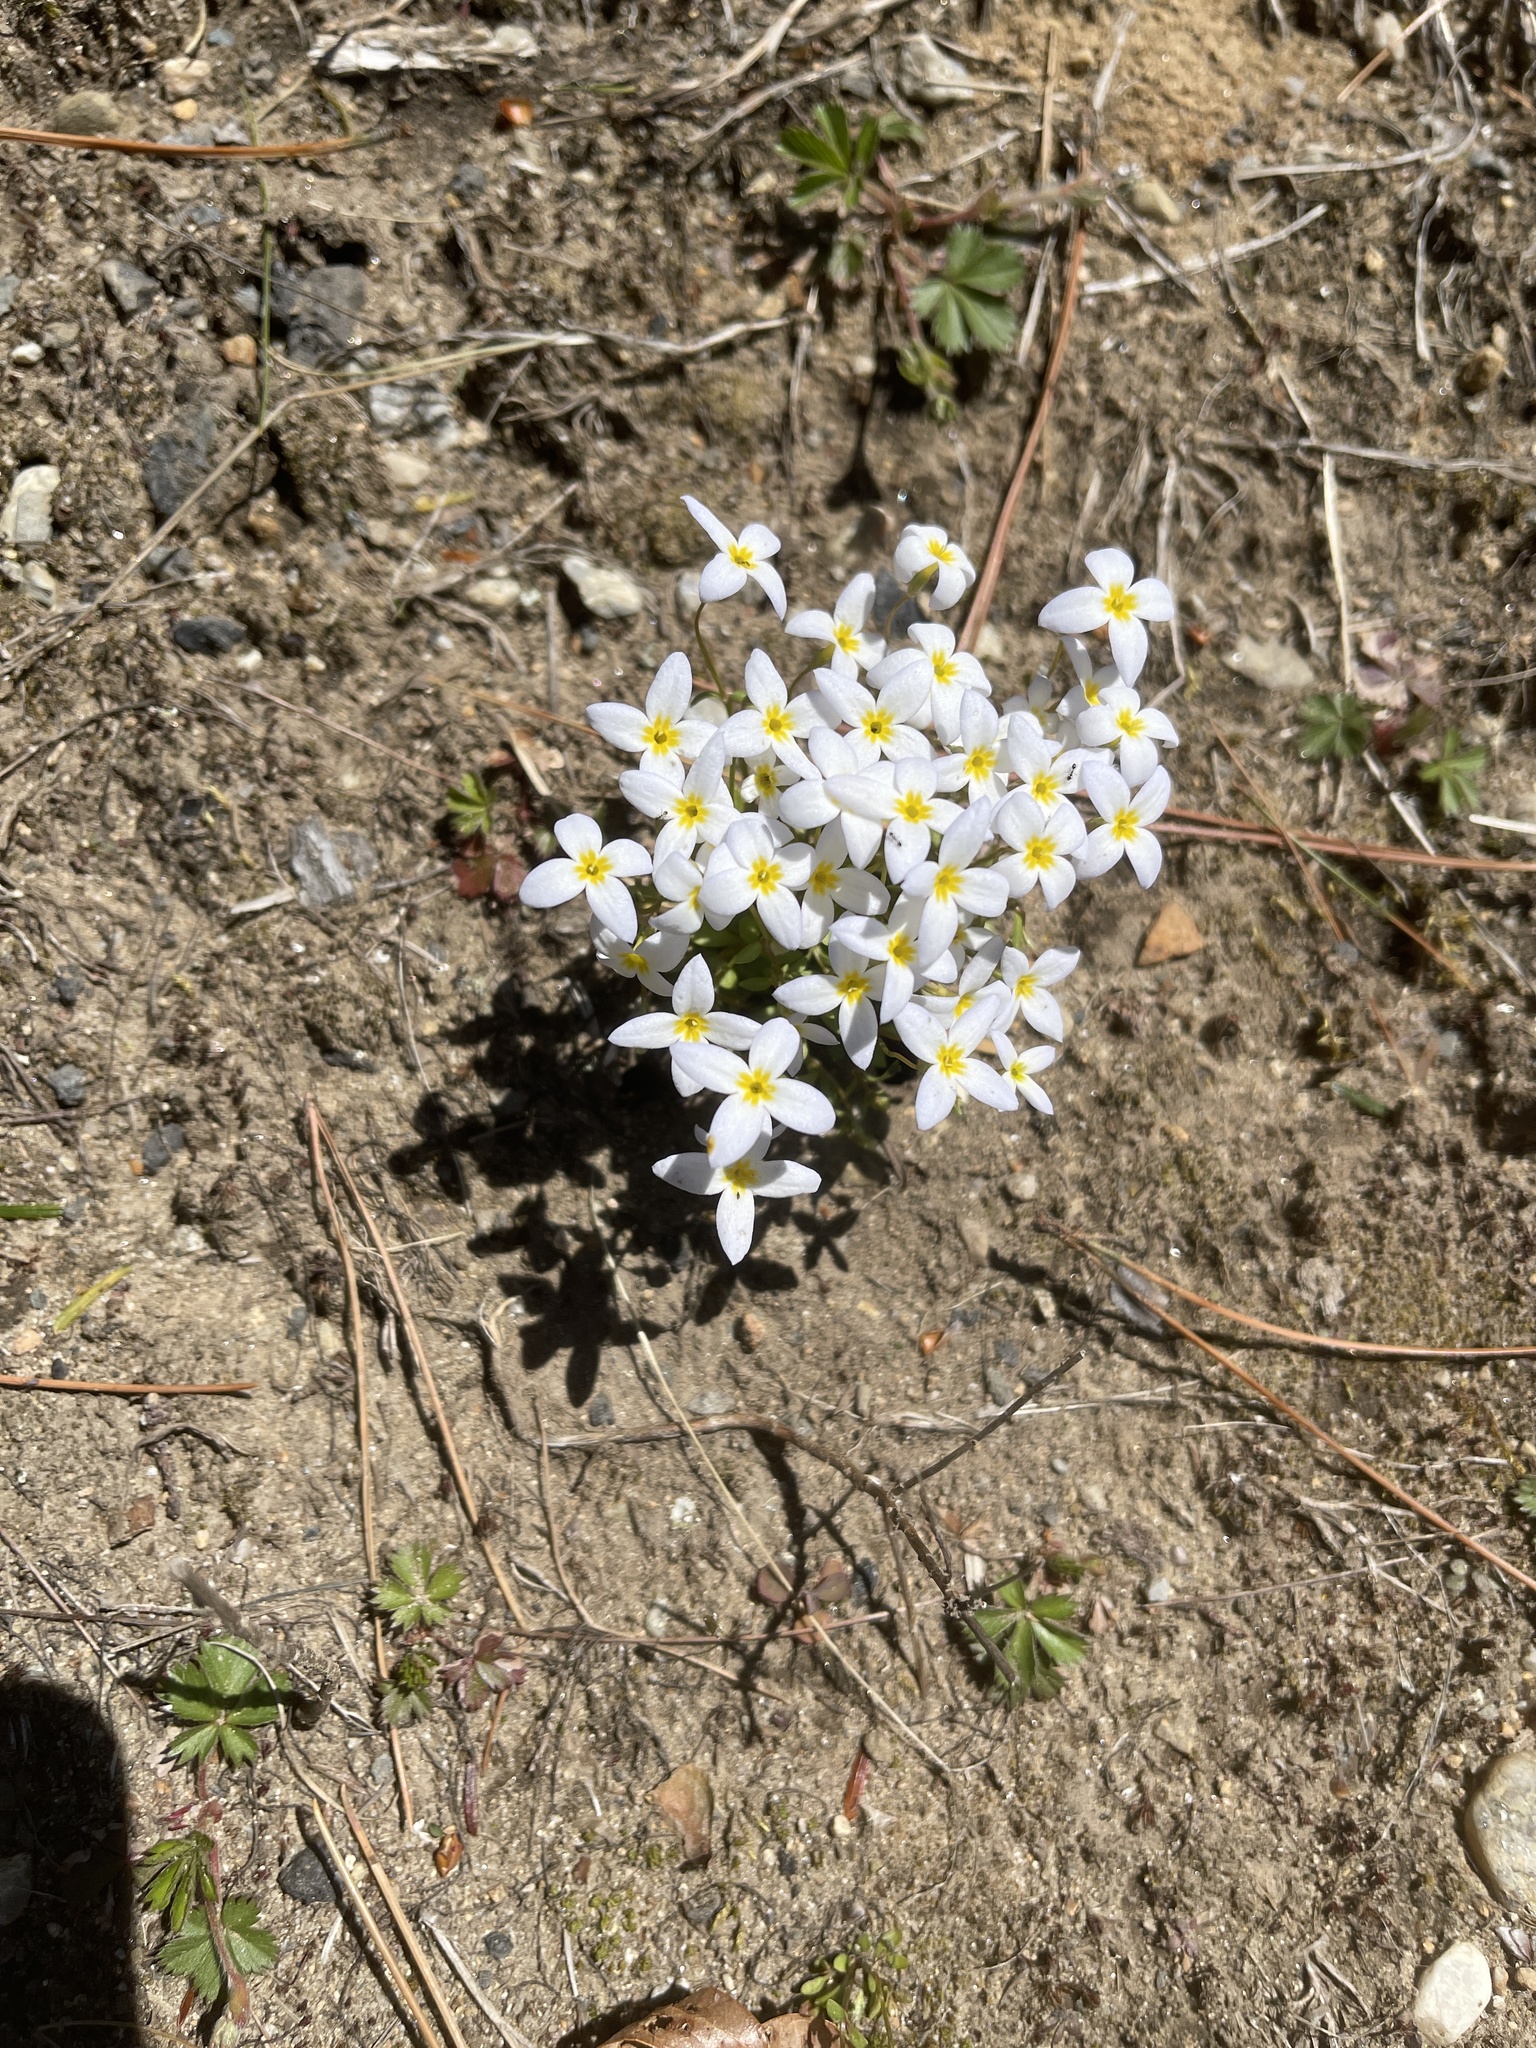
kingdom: Plantae
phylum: Tracheophyta
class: Magnoliopsida
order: Gentianales
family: Rubiaceae
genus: Houstonia
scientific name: Houstonia caerulea
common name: Bluets
